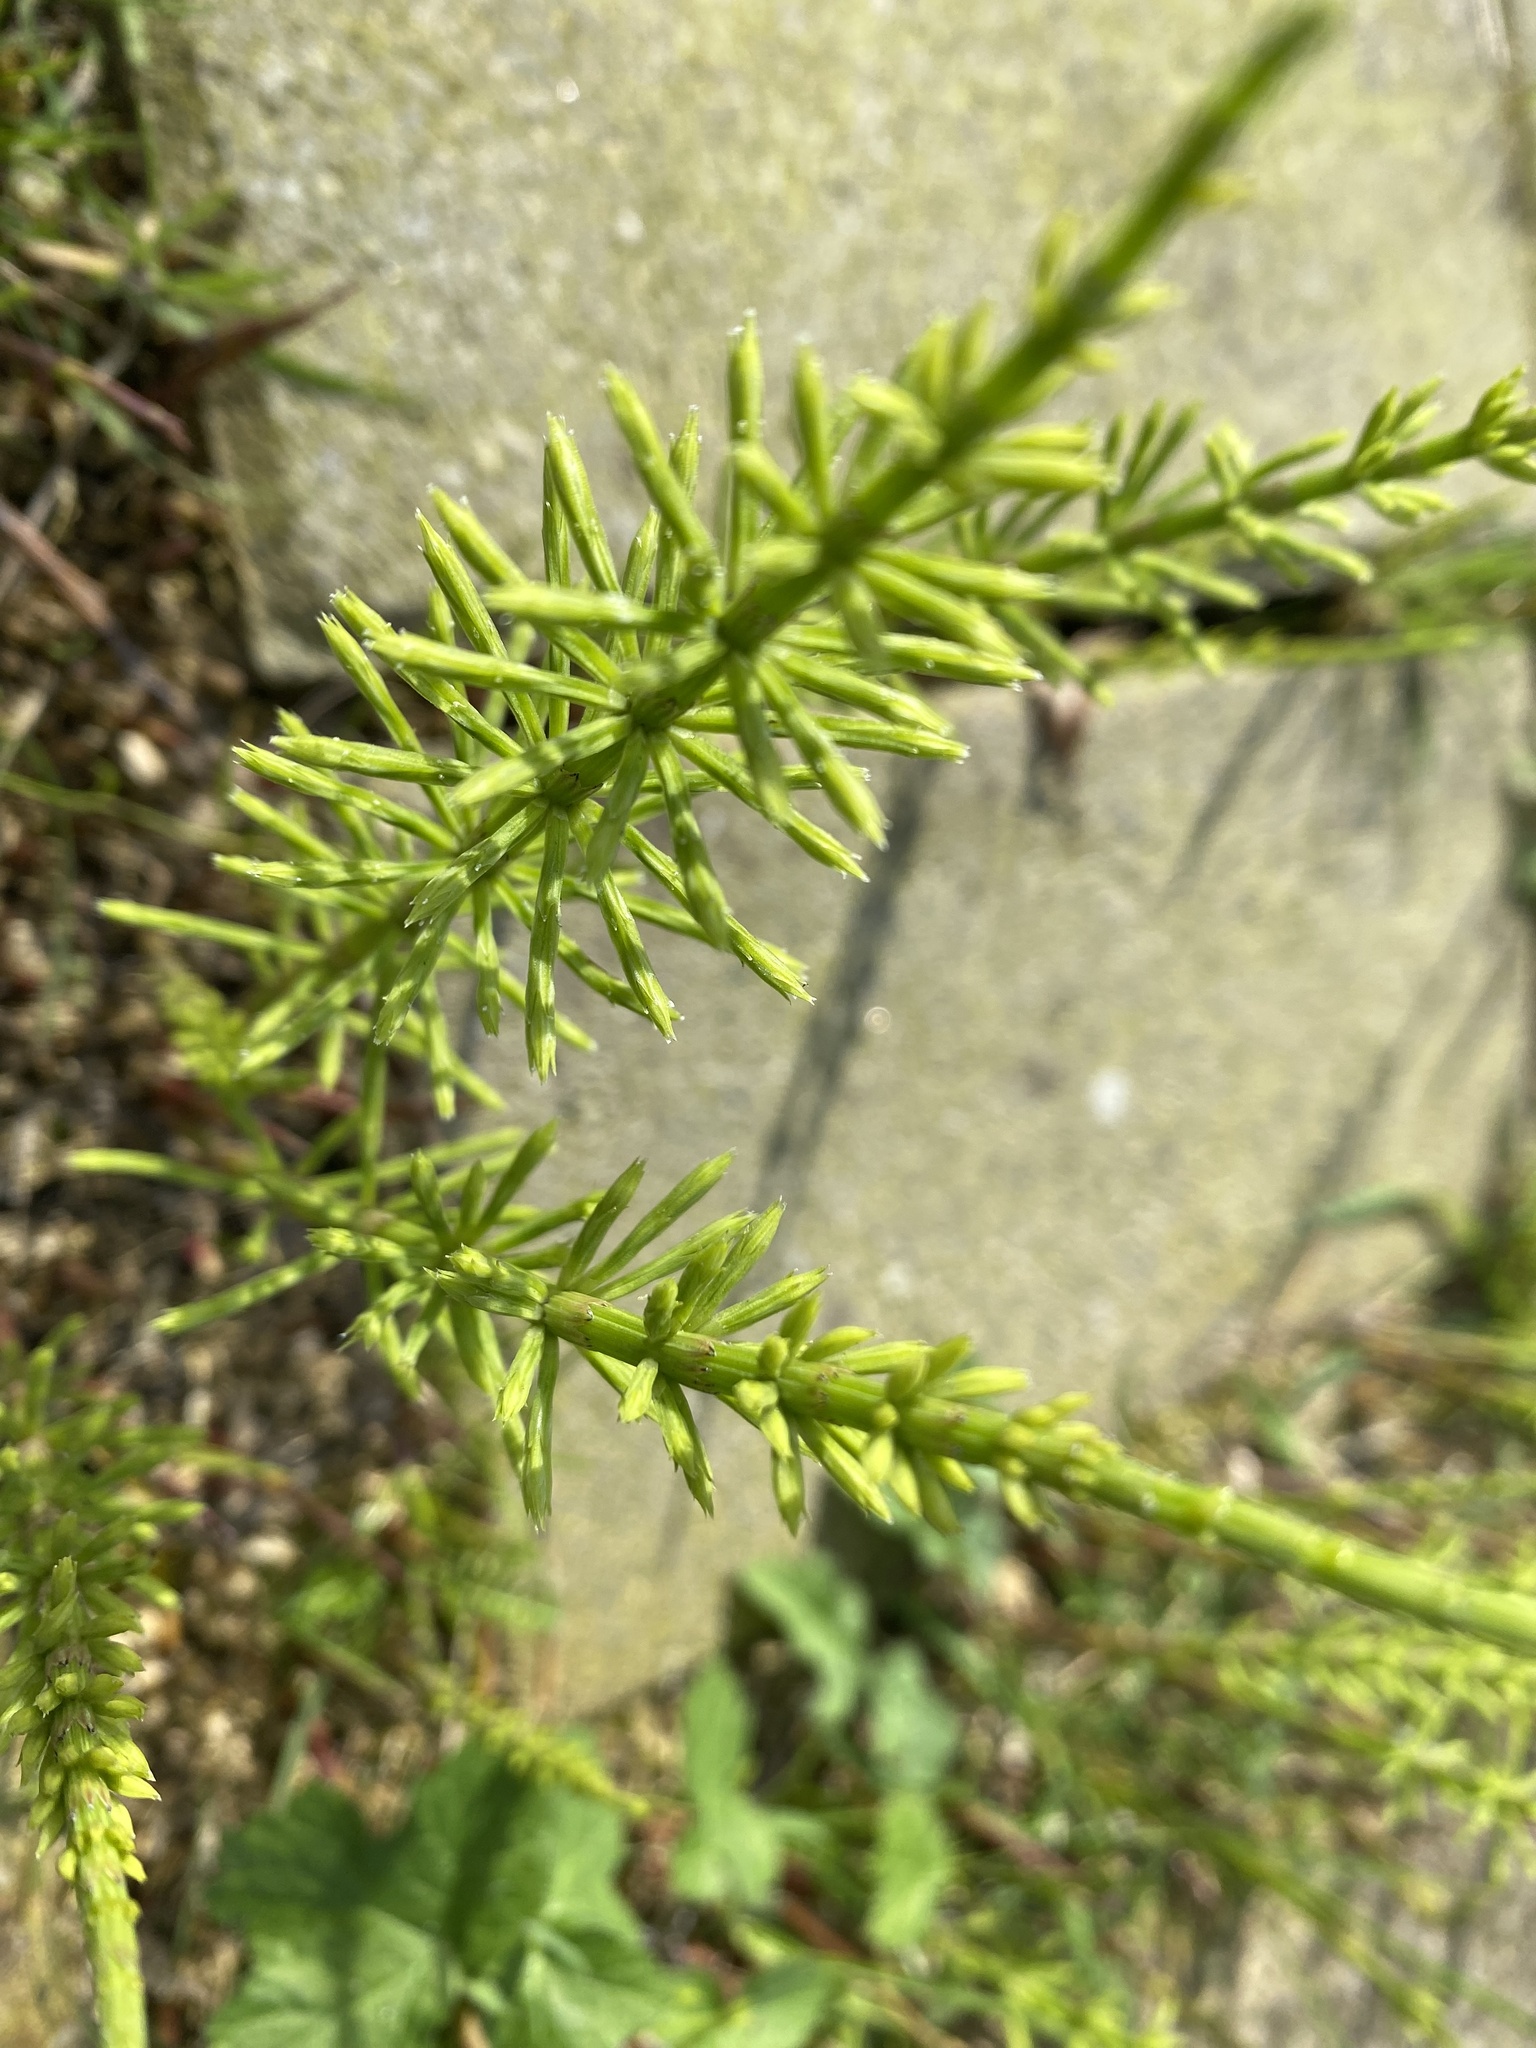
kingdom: Plantae
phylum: Tracheophyta
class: Polypodiopsida
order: Equisetales
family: Equisetaceae
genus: Equisetum
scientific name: Equisetum arvense
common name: Field horsetail
